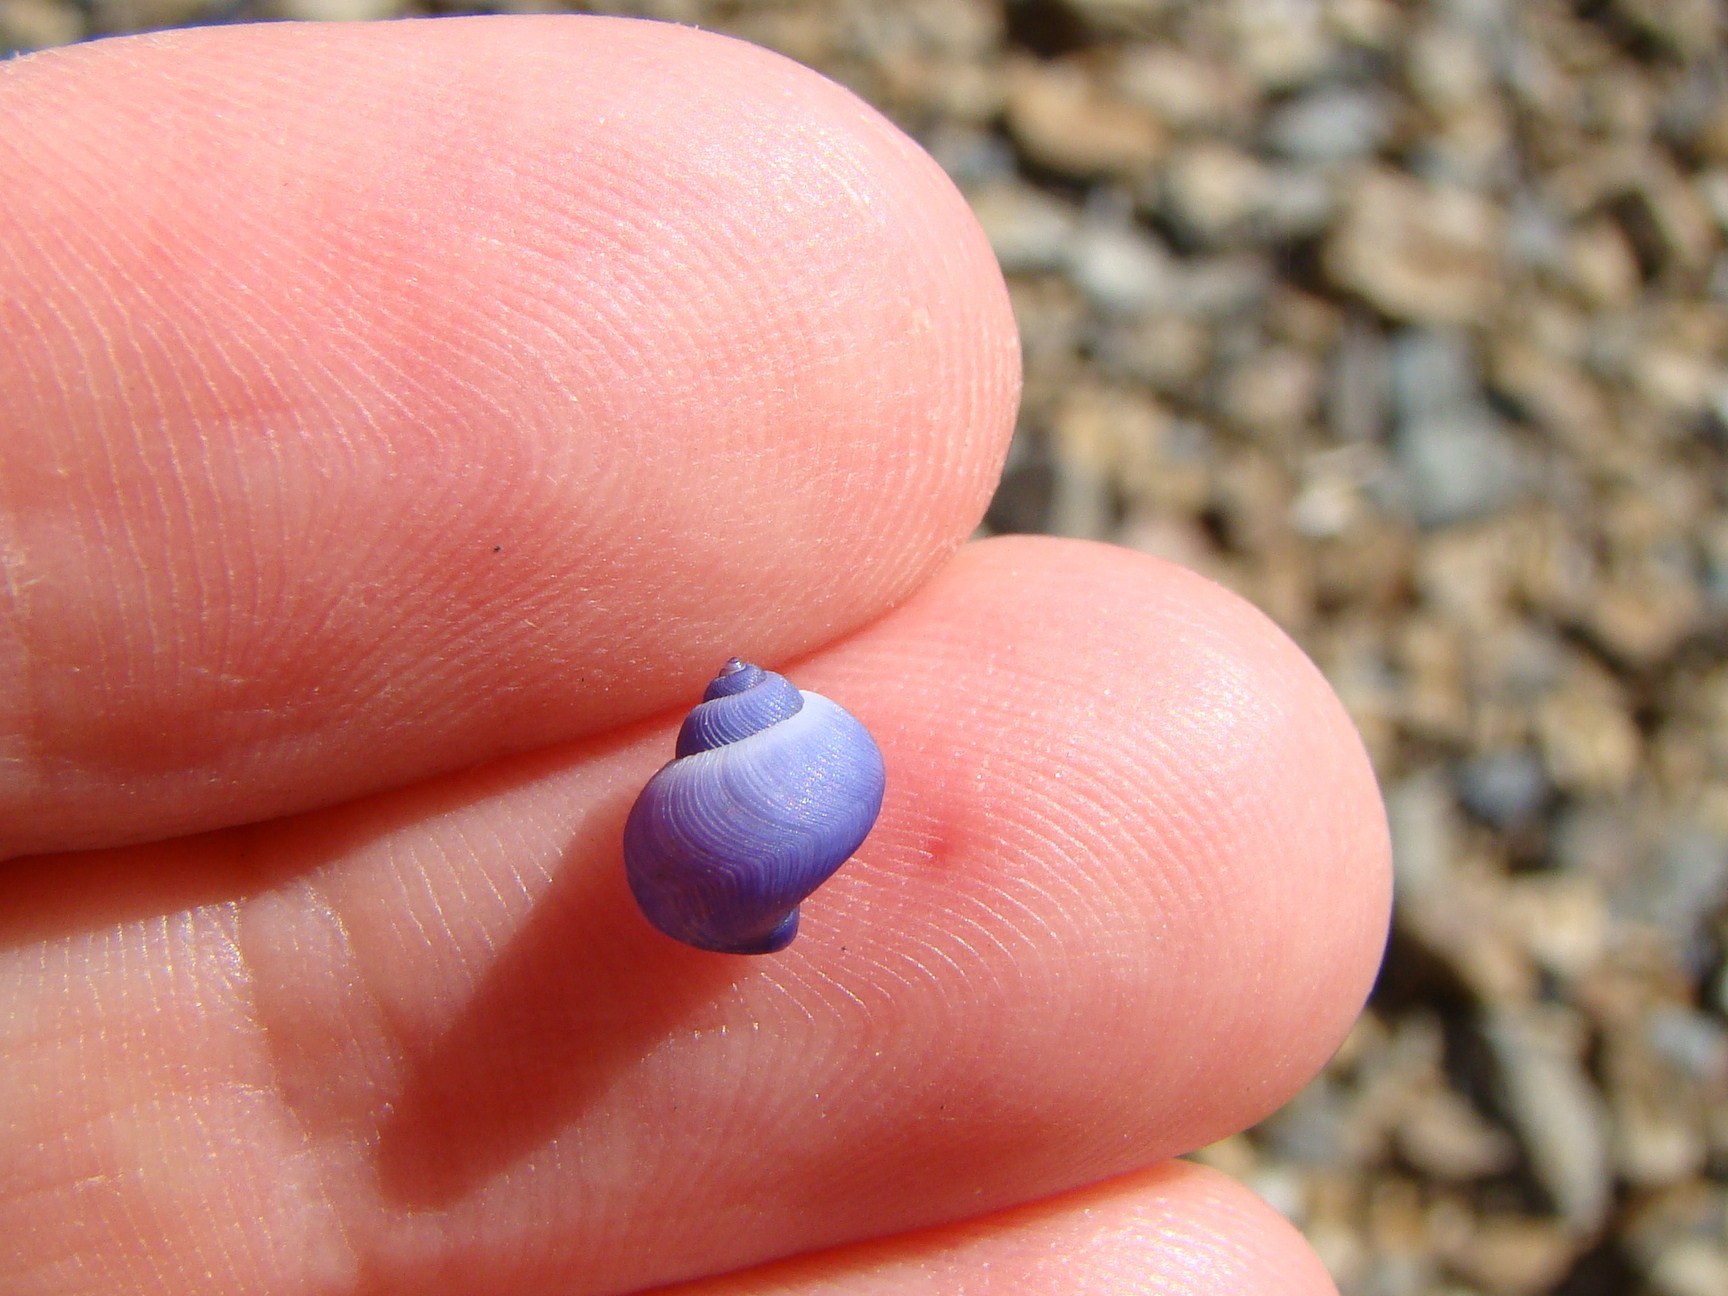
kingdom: Animalia
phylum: Mollusca
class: Gastropoda
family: Epitoniidae
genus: Janthina
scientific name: Janthina exigua
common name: Dwarf janthina
